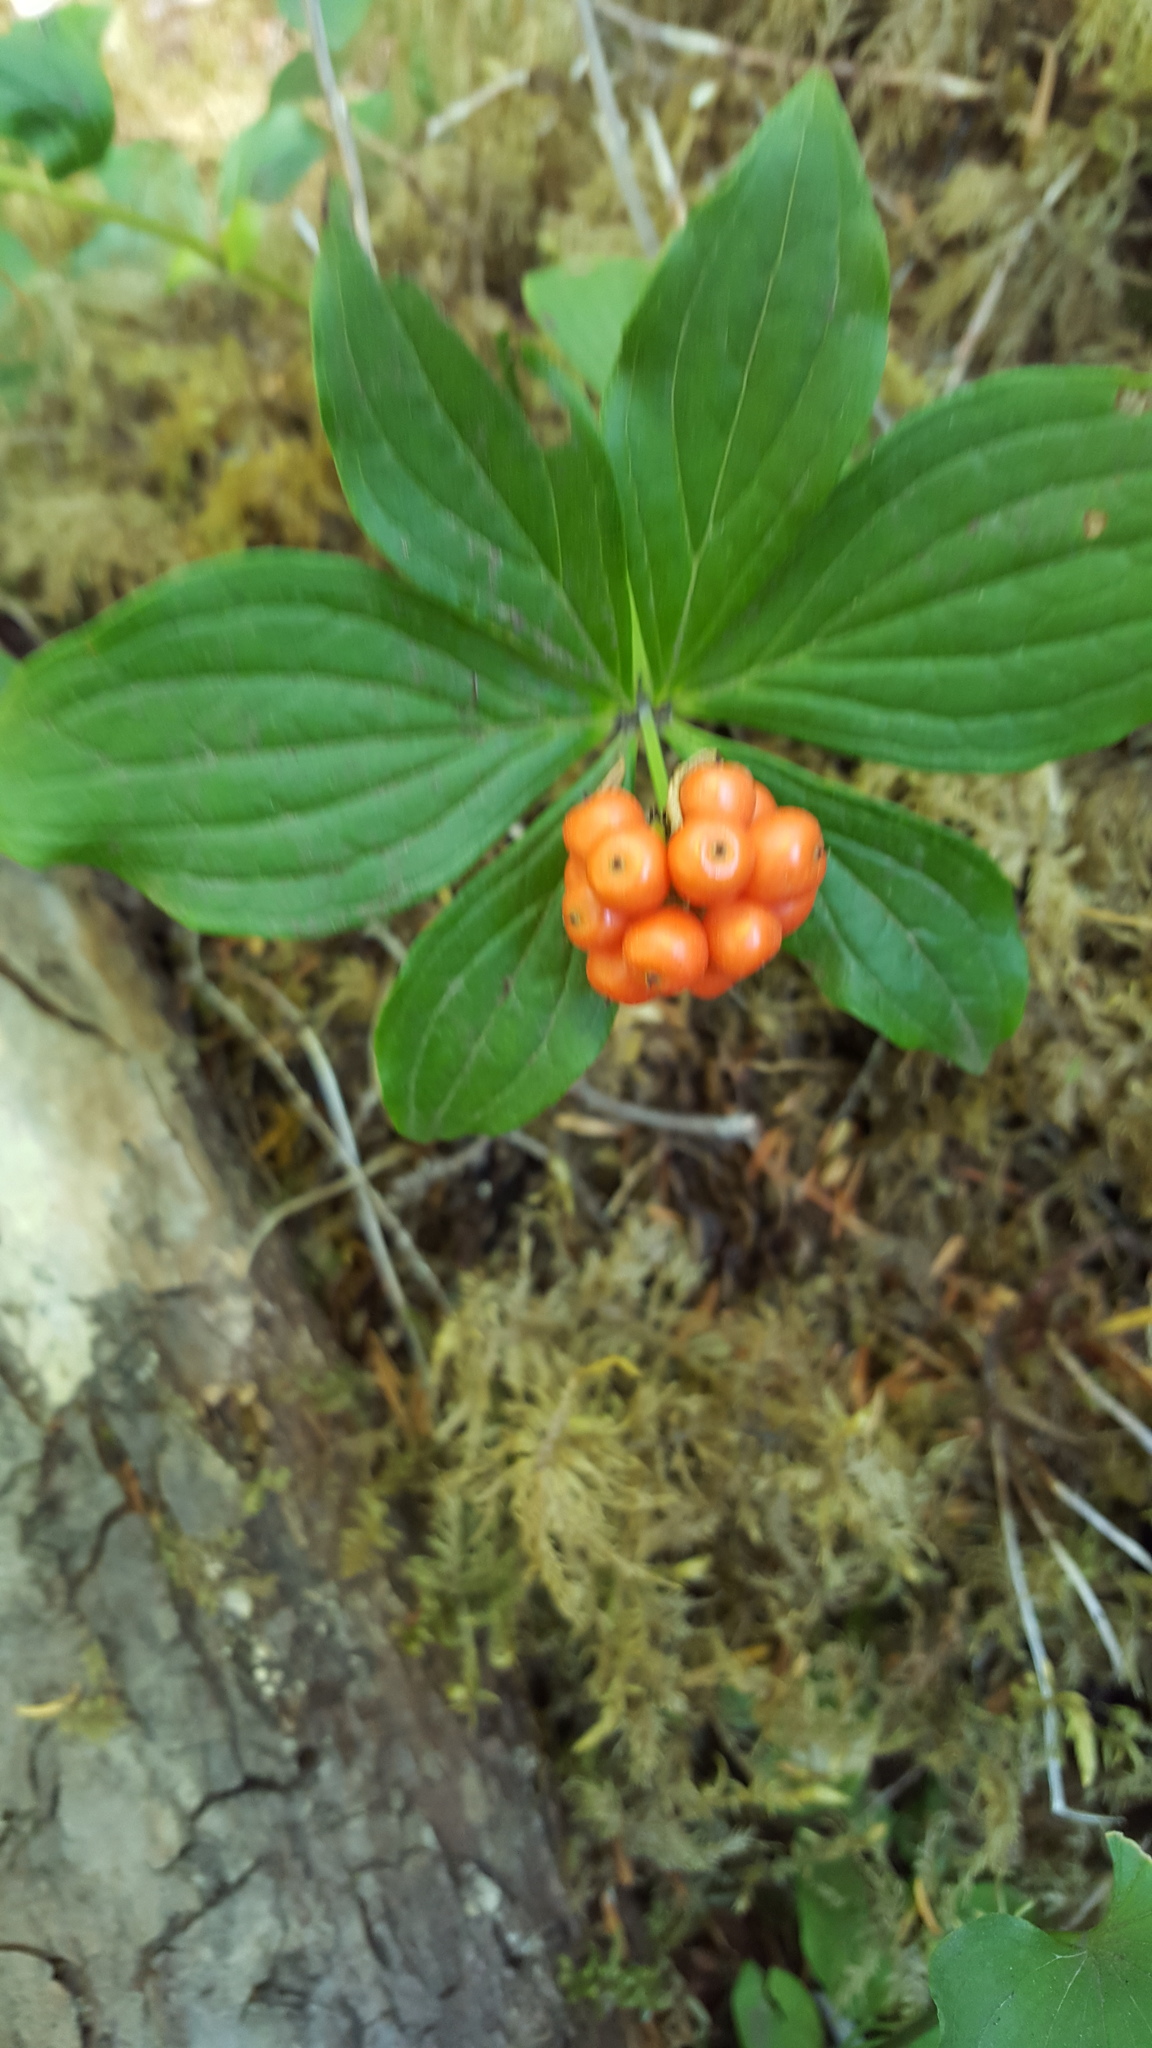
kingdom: Plantae
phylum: Tracheophyta
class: Magnoliopsida
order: Cornales
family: Cornaceae
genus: Cornus
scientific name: Cornus unalaschkensis
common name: Alaska bunchberry
